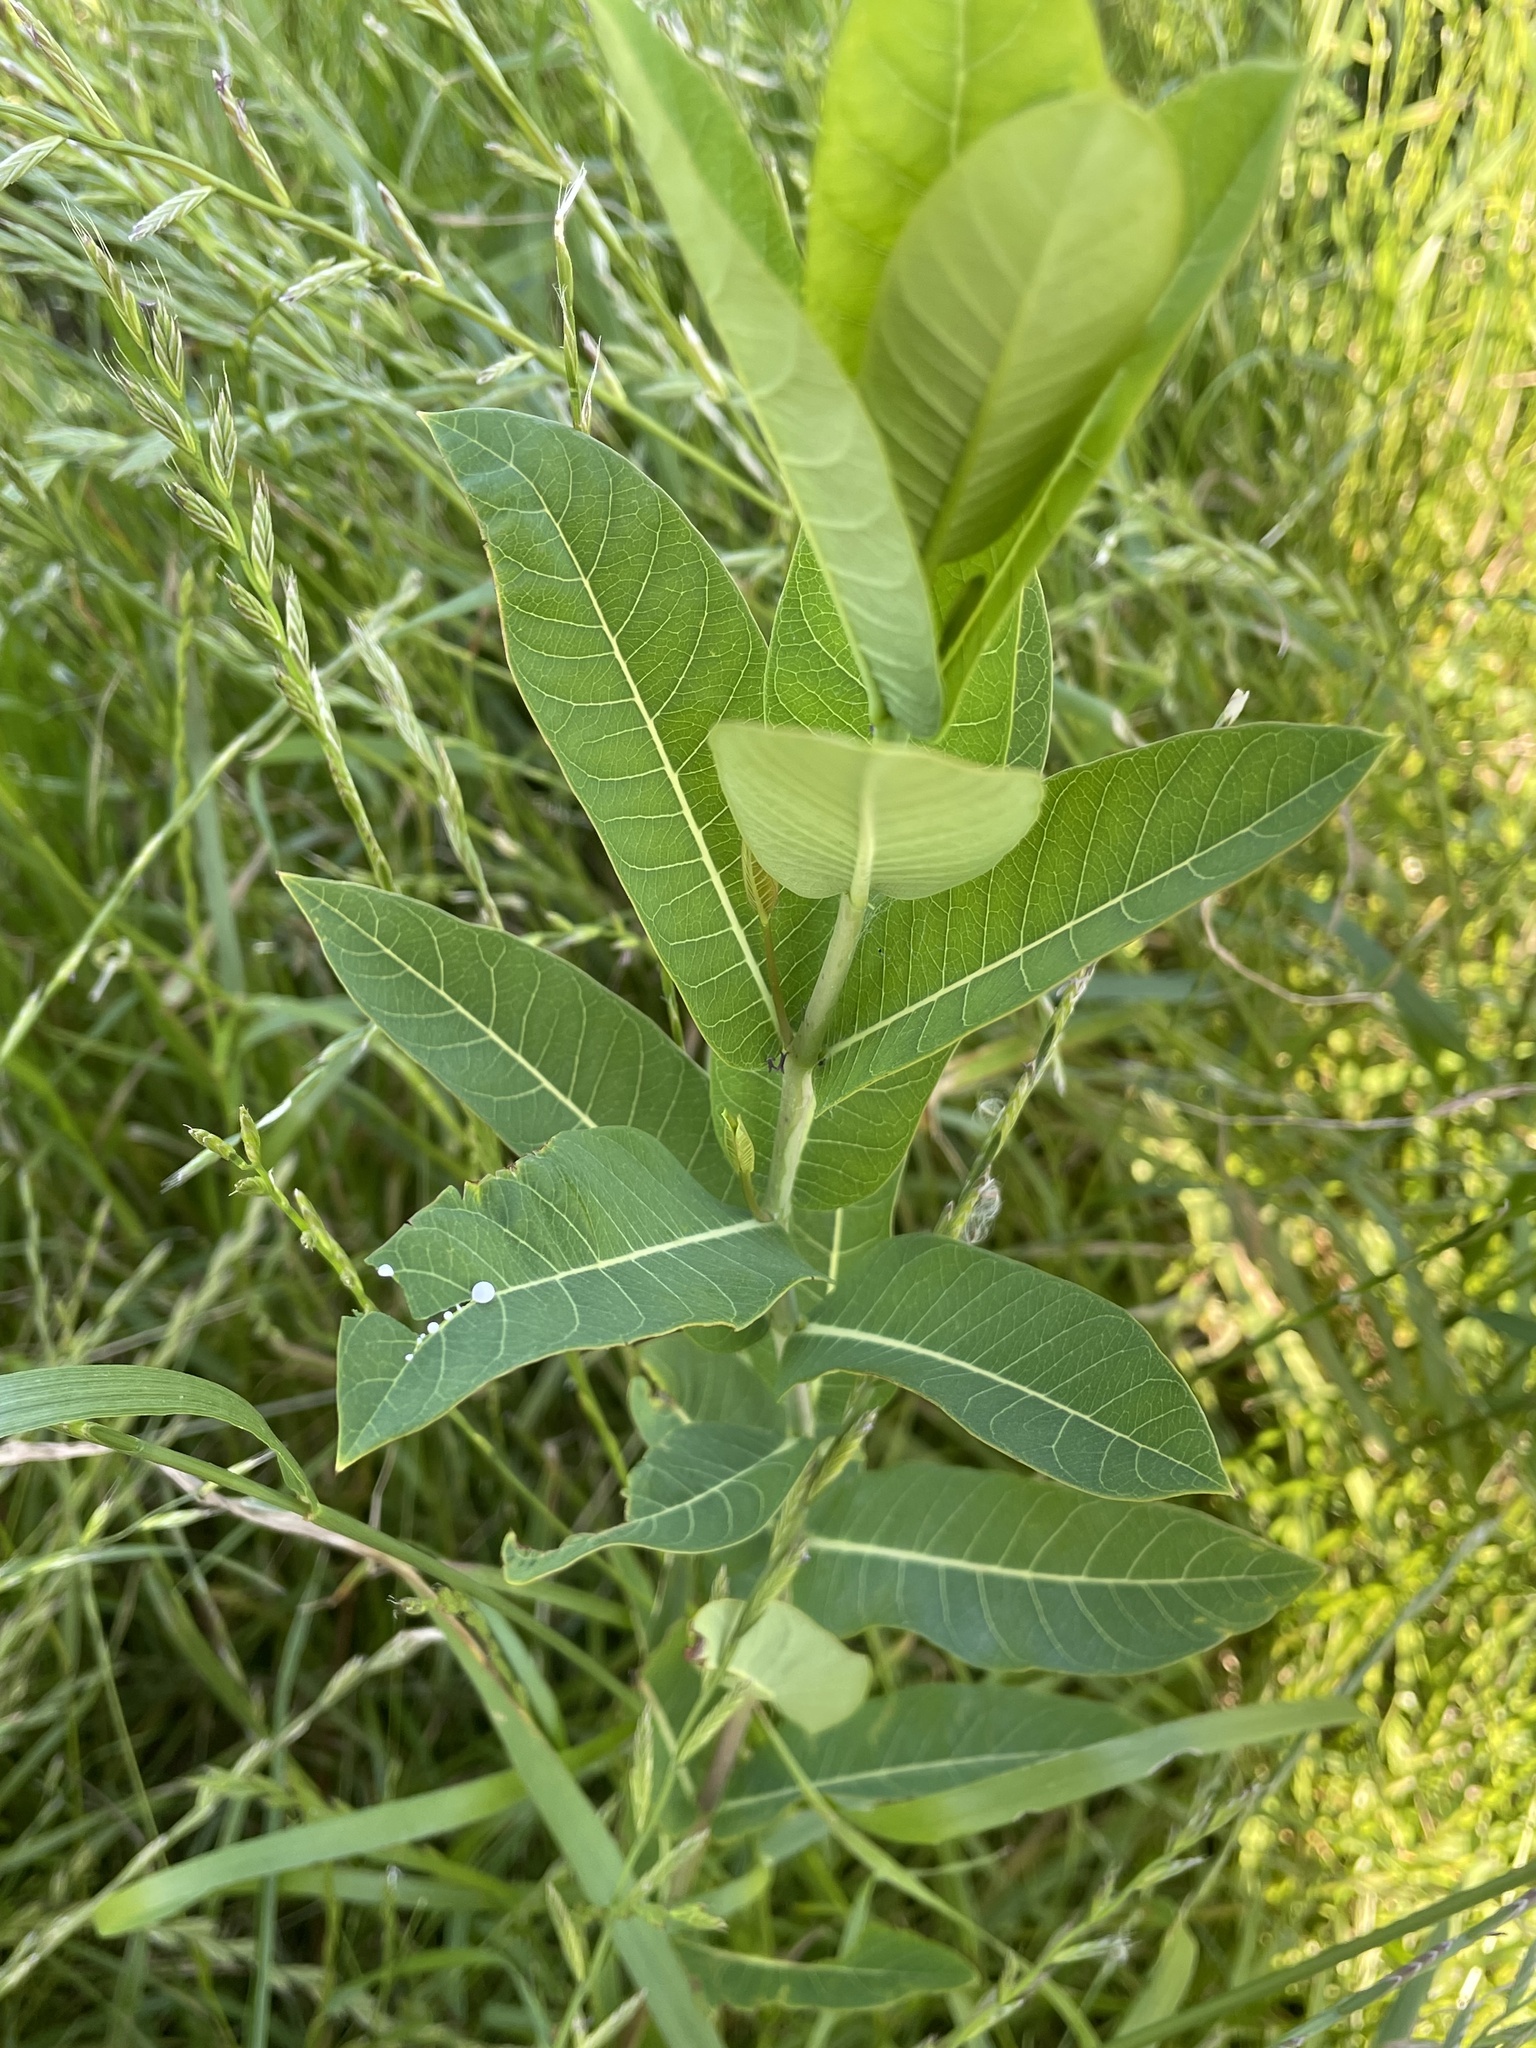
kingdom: Plantae
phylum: Tracheophyta
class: Magnoliopsida
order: Gentianales
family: Apocynaceae
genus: Apocynum
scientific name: Apocynum cannabinum
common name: Hemp dogbane
